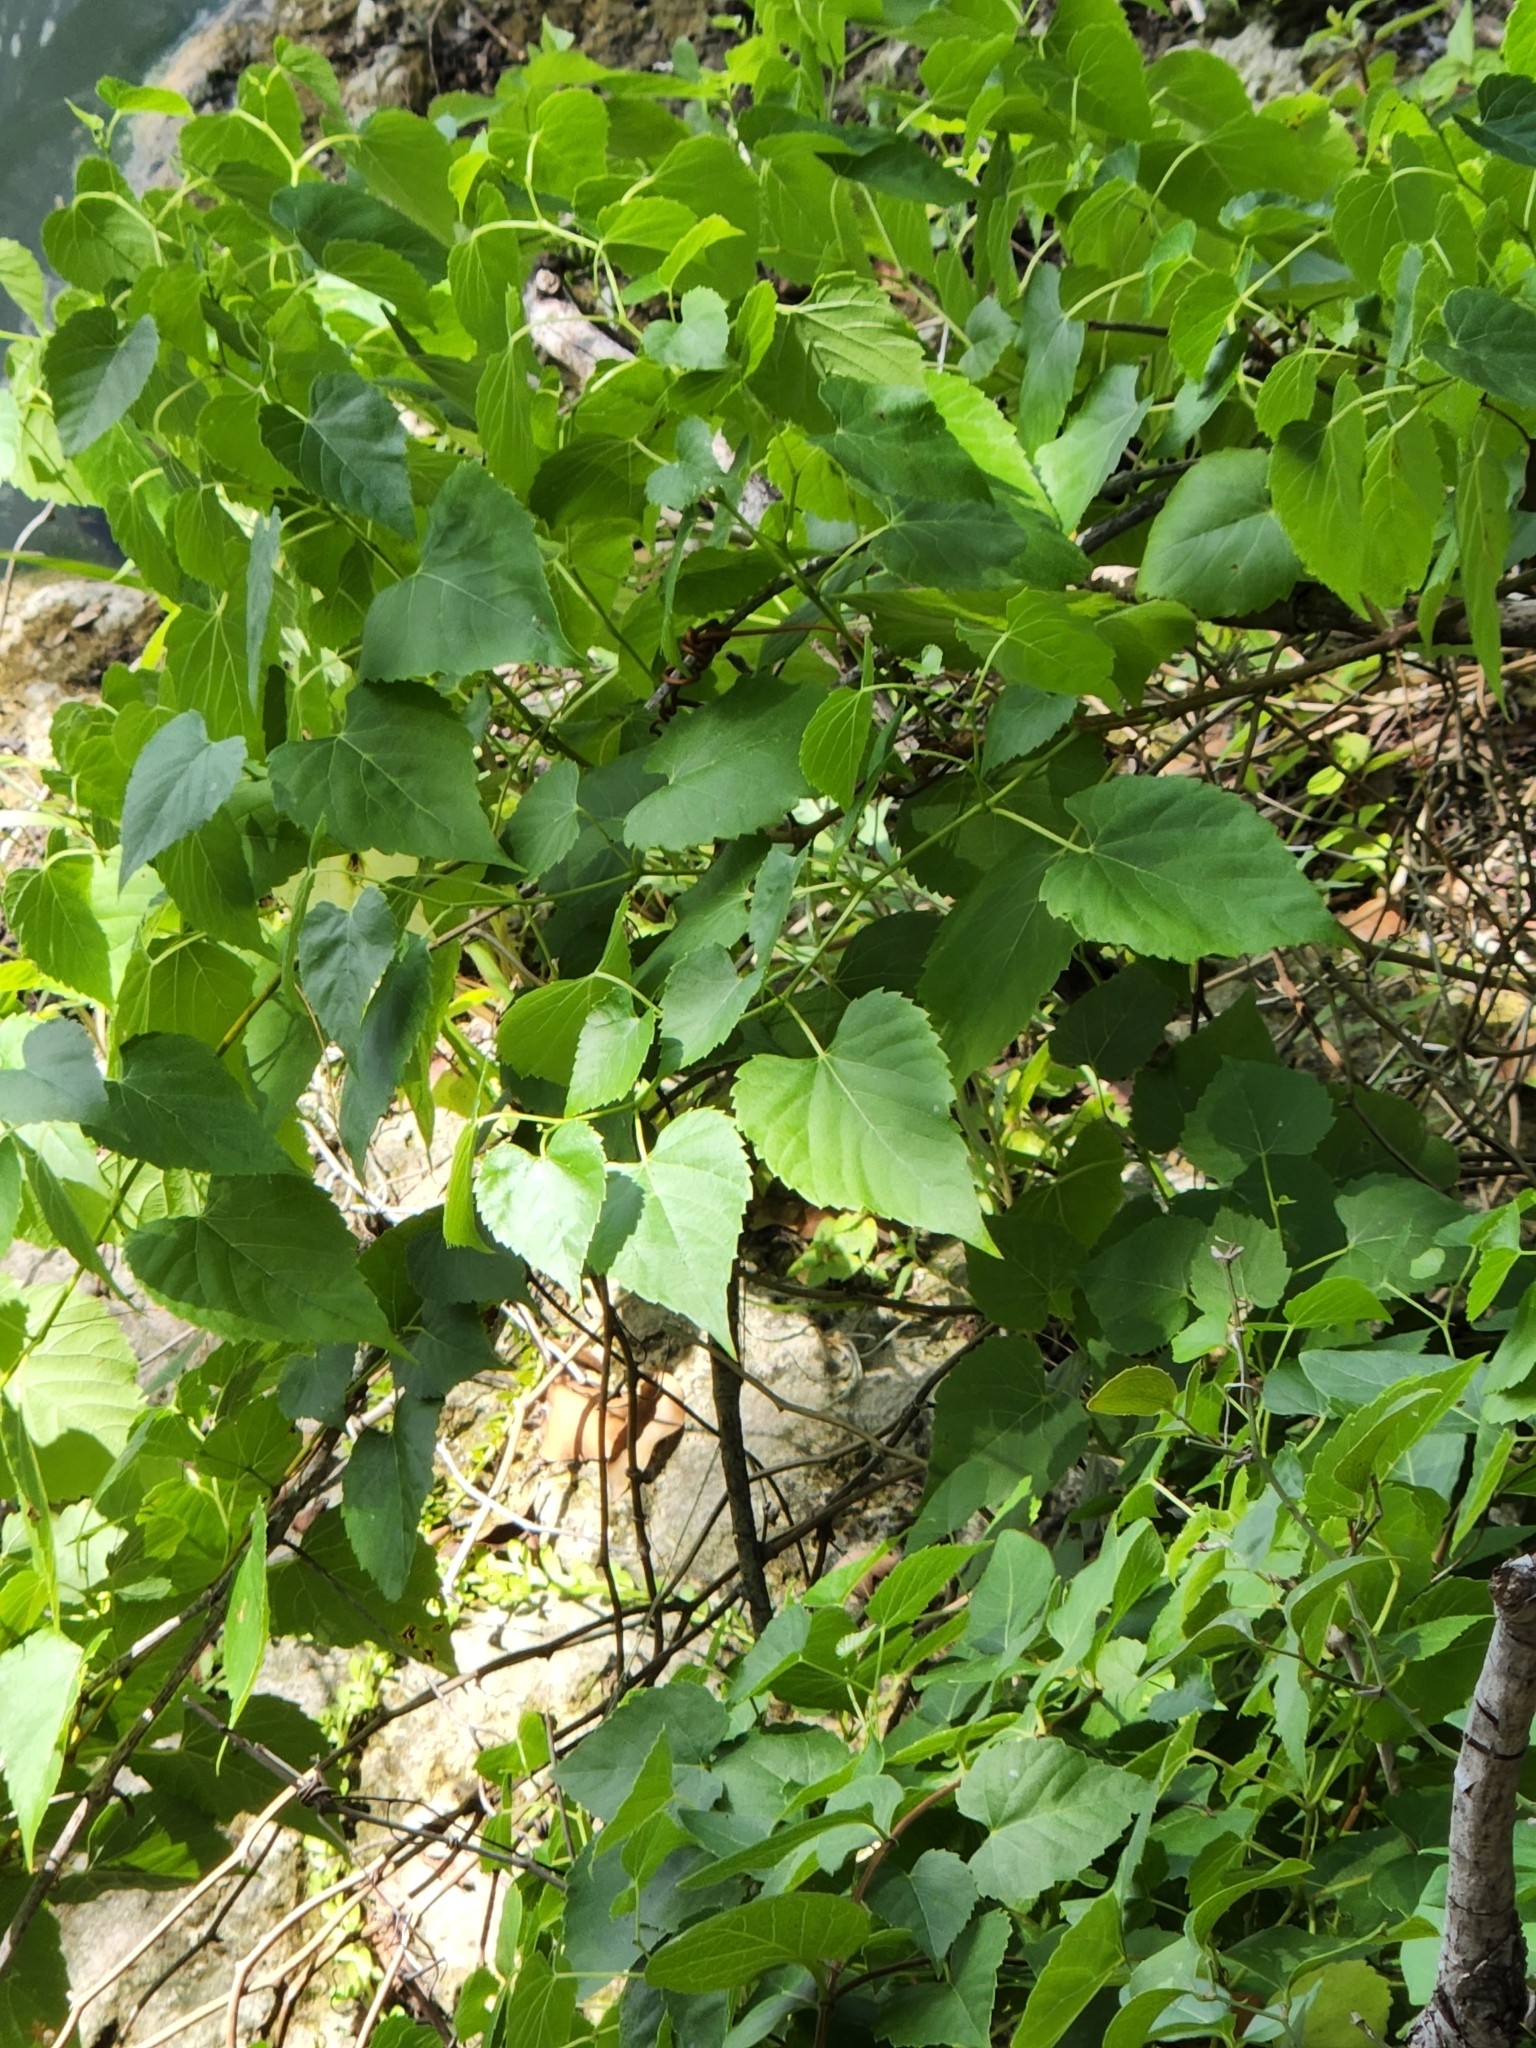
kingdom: Plantae
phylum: Tracheophyta
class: Magnoliopsida
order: Vitales
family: Vitaceae
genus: Ampelopsis
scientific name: Ampelopsis cordata
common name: Heart-leaf ampelopsis
